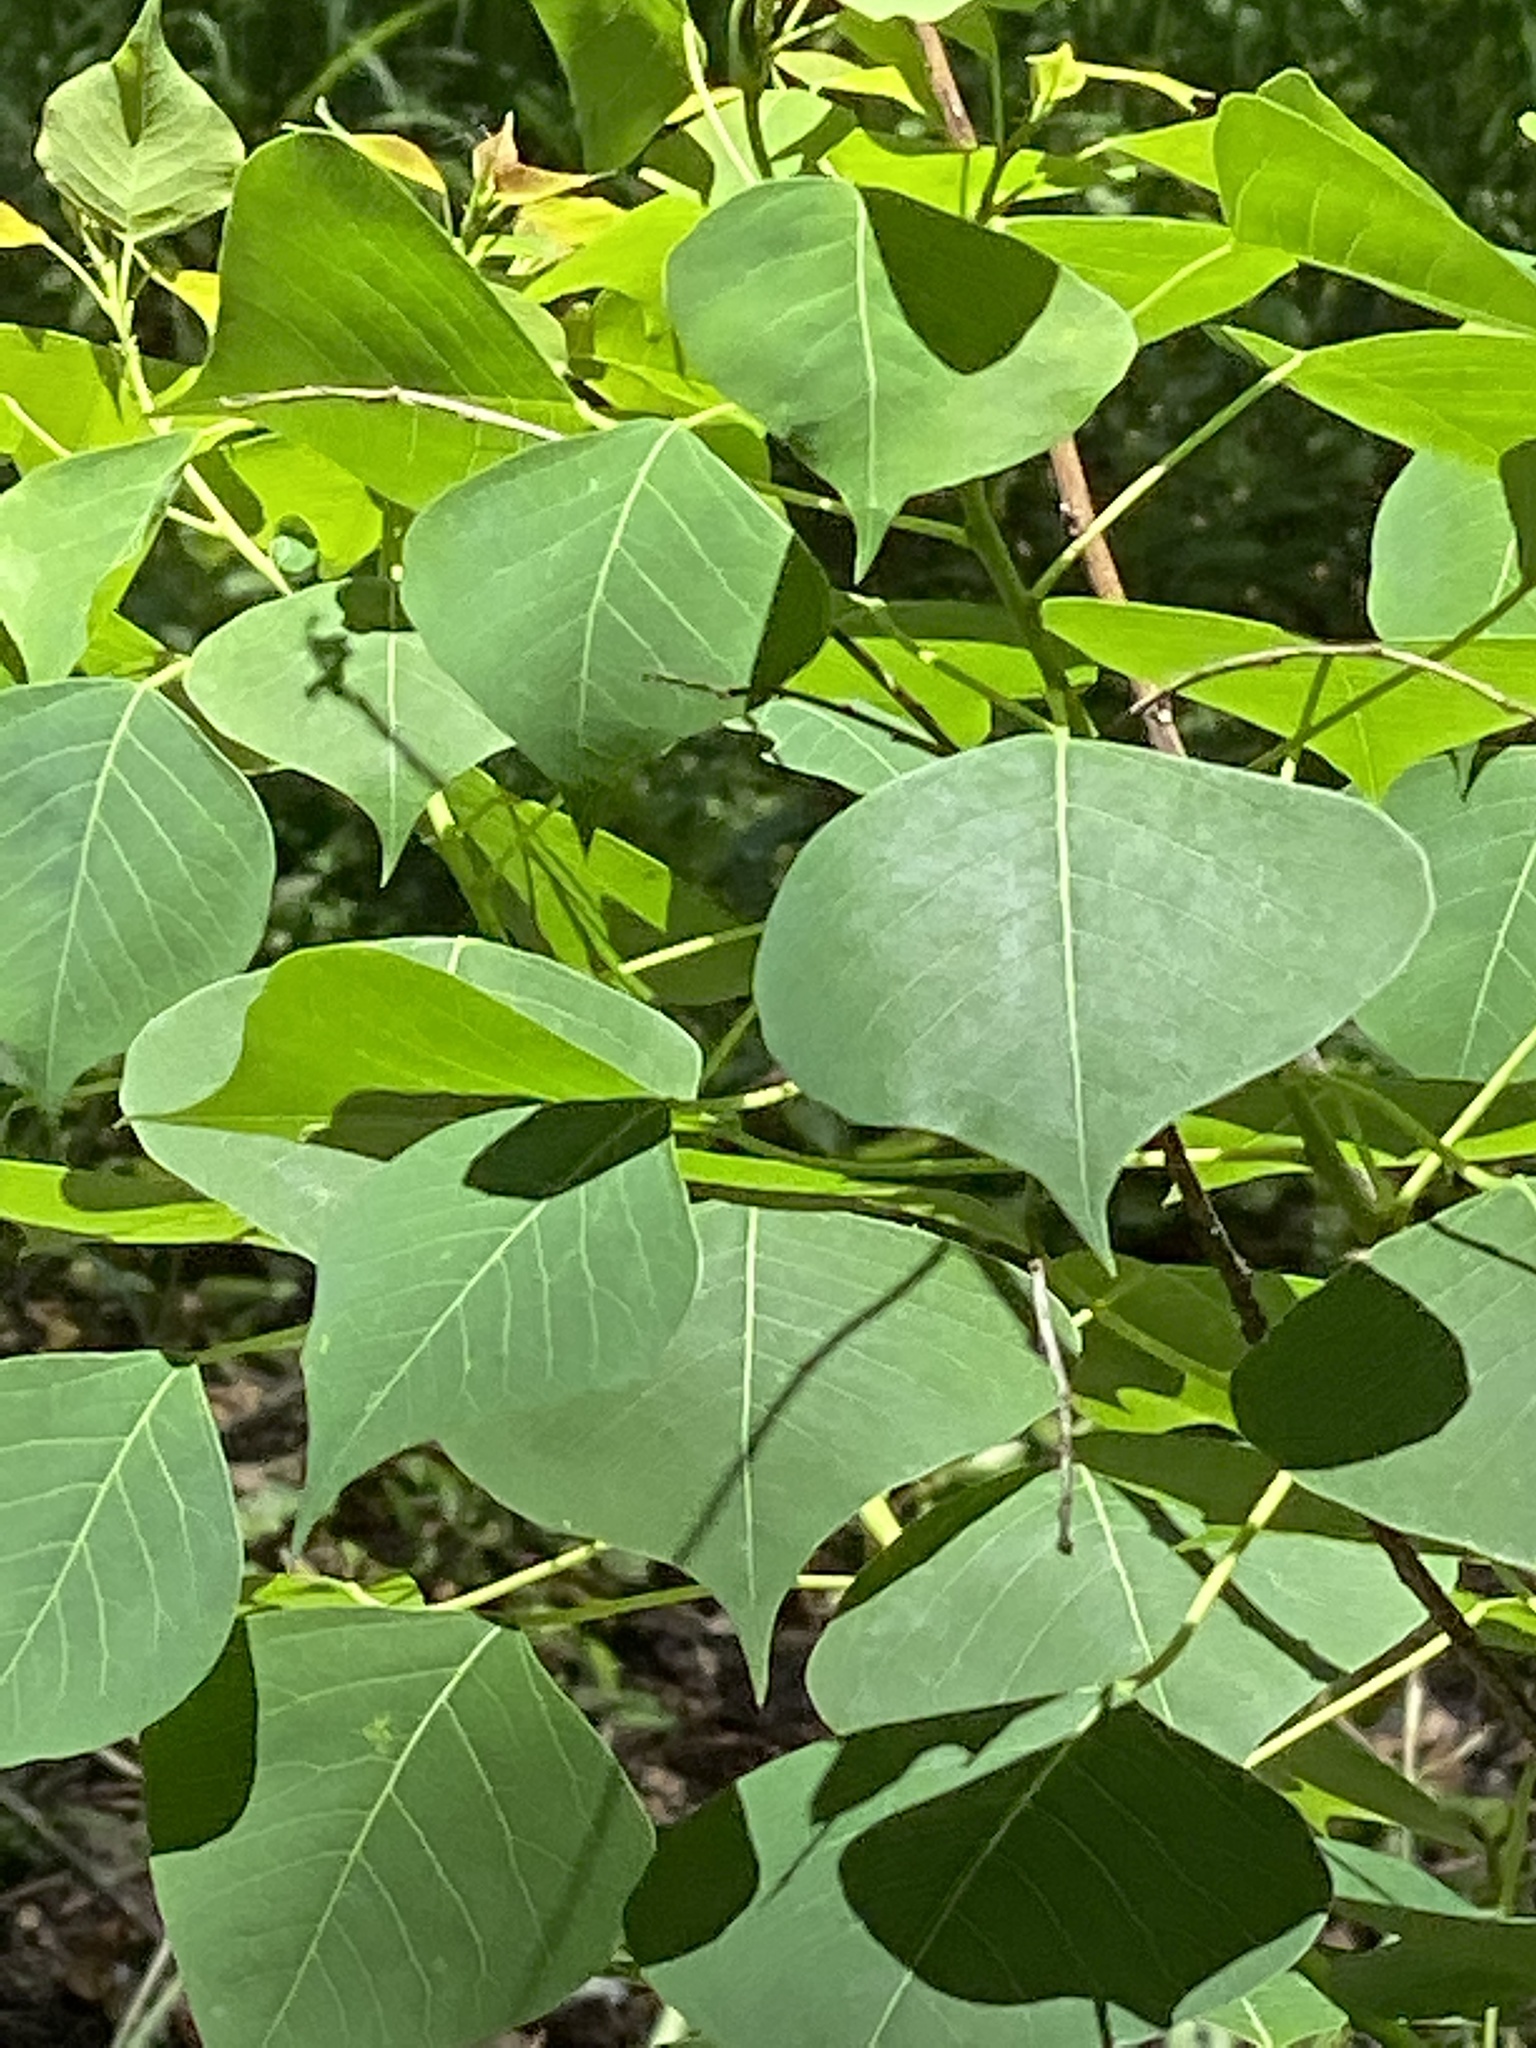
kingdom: Plantae
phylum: Tracheophyta
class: Magnoliopsida
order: Malpighiales
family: Euphorbiaceae
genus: Triadica
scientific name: Triadica sebifera
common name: Chinese tallow
